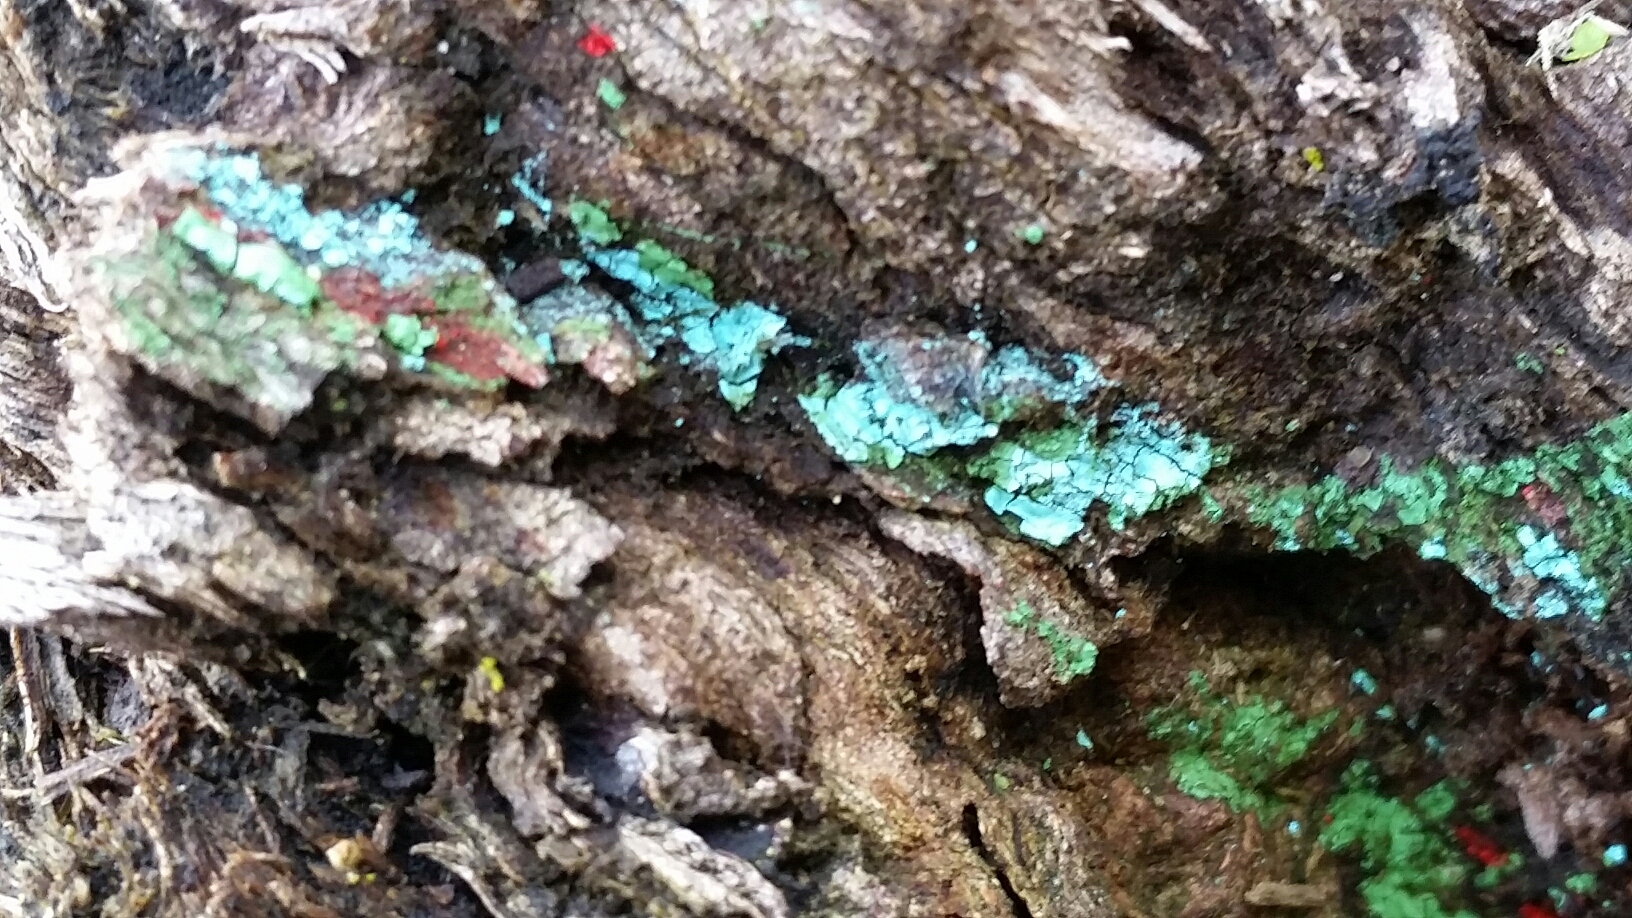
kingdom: Fungi
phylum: Ascomycota
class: Sordariomycetes
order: Hypocreales
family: Hypocreaceae
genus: Trichoderma
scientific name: Trichoderma viride
